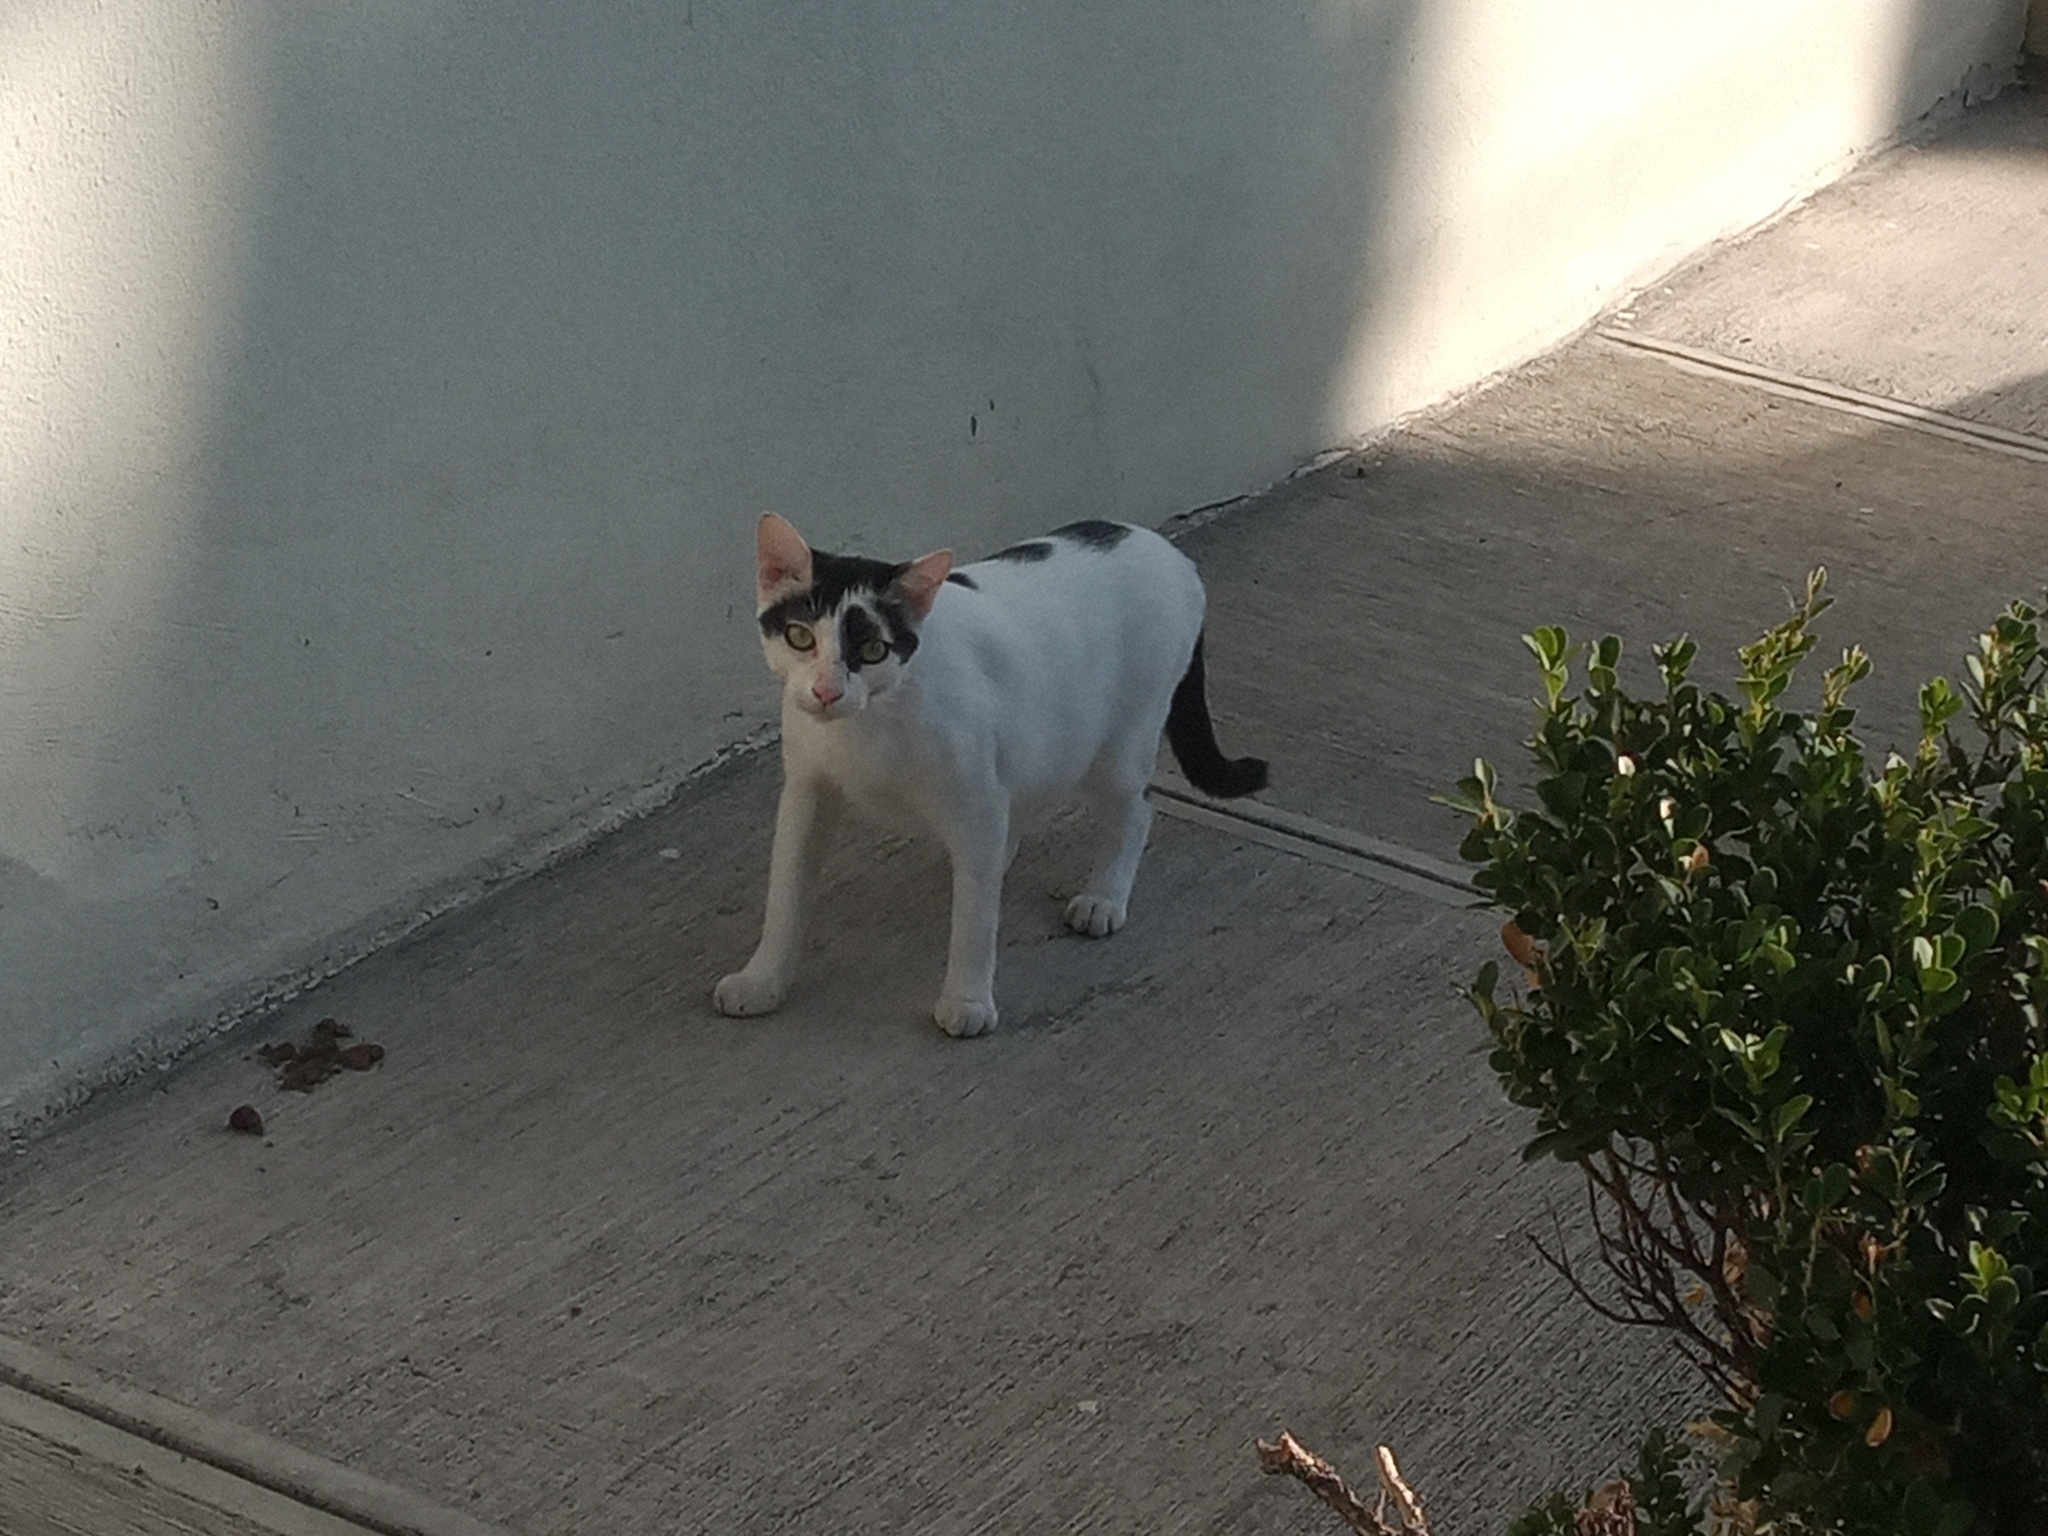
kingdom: Animalia
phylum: Chordata
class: Mammalia
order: Carnivora
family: Felidae
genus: Felis
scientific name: Felis catus
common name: Domestic cat
